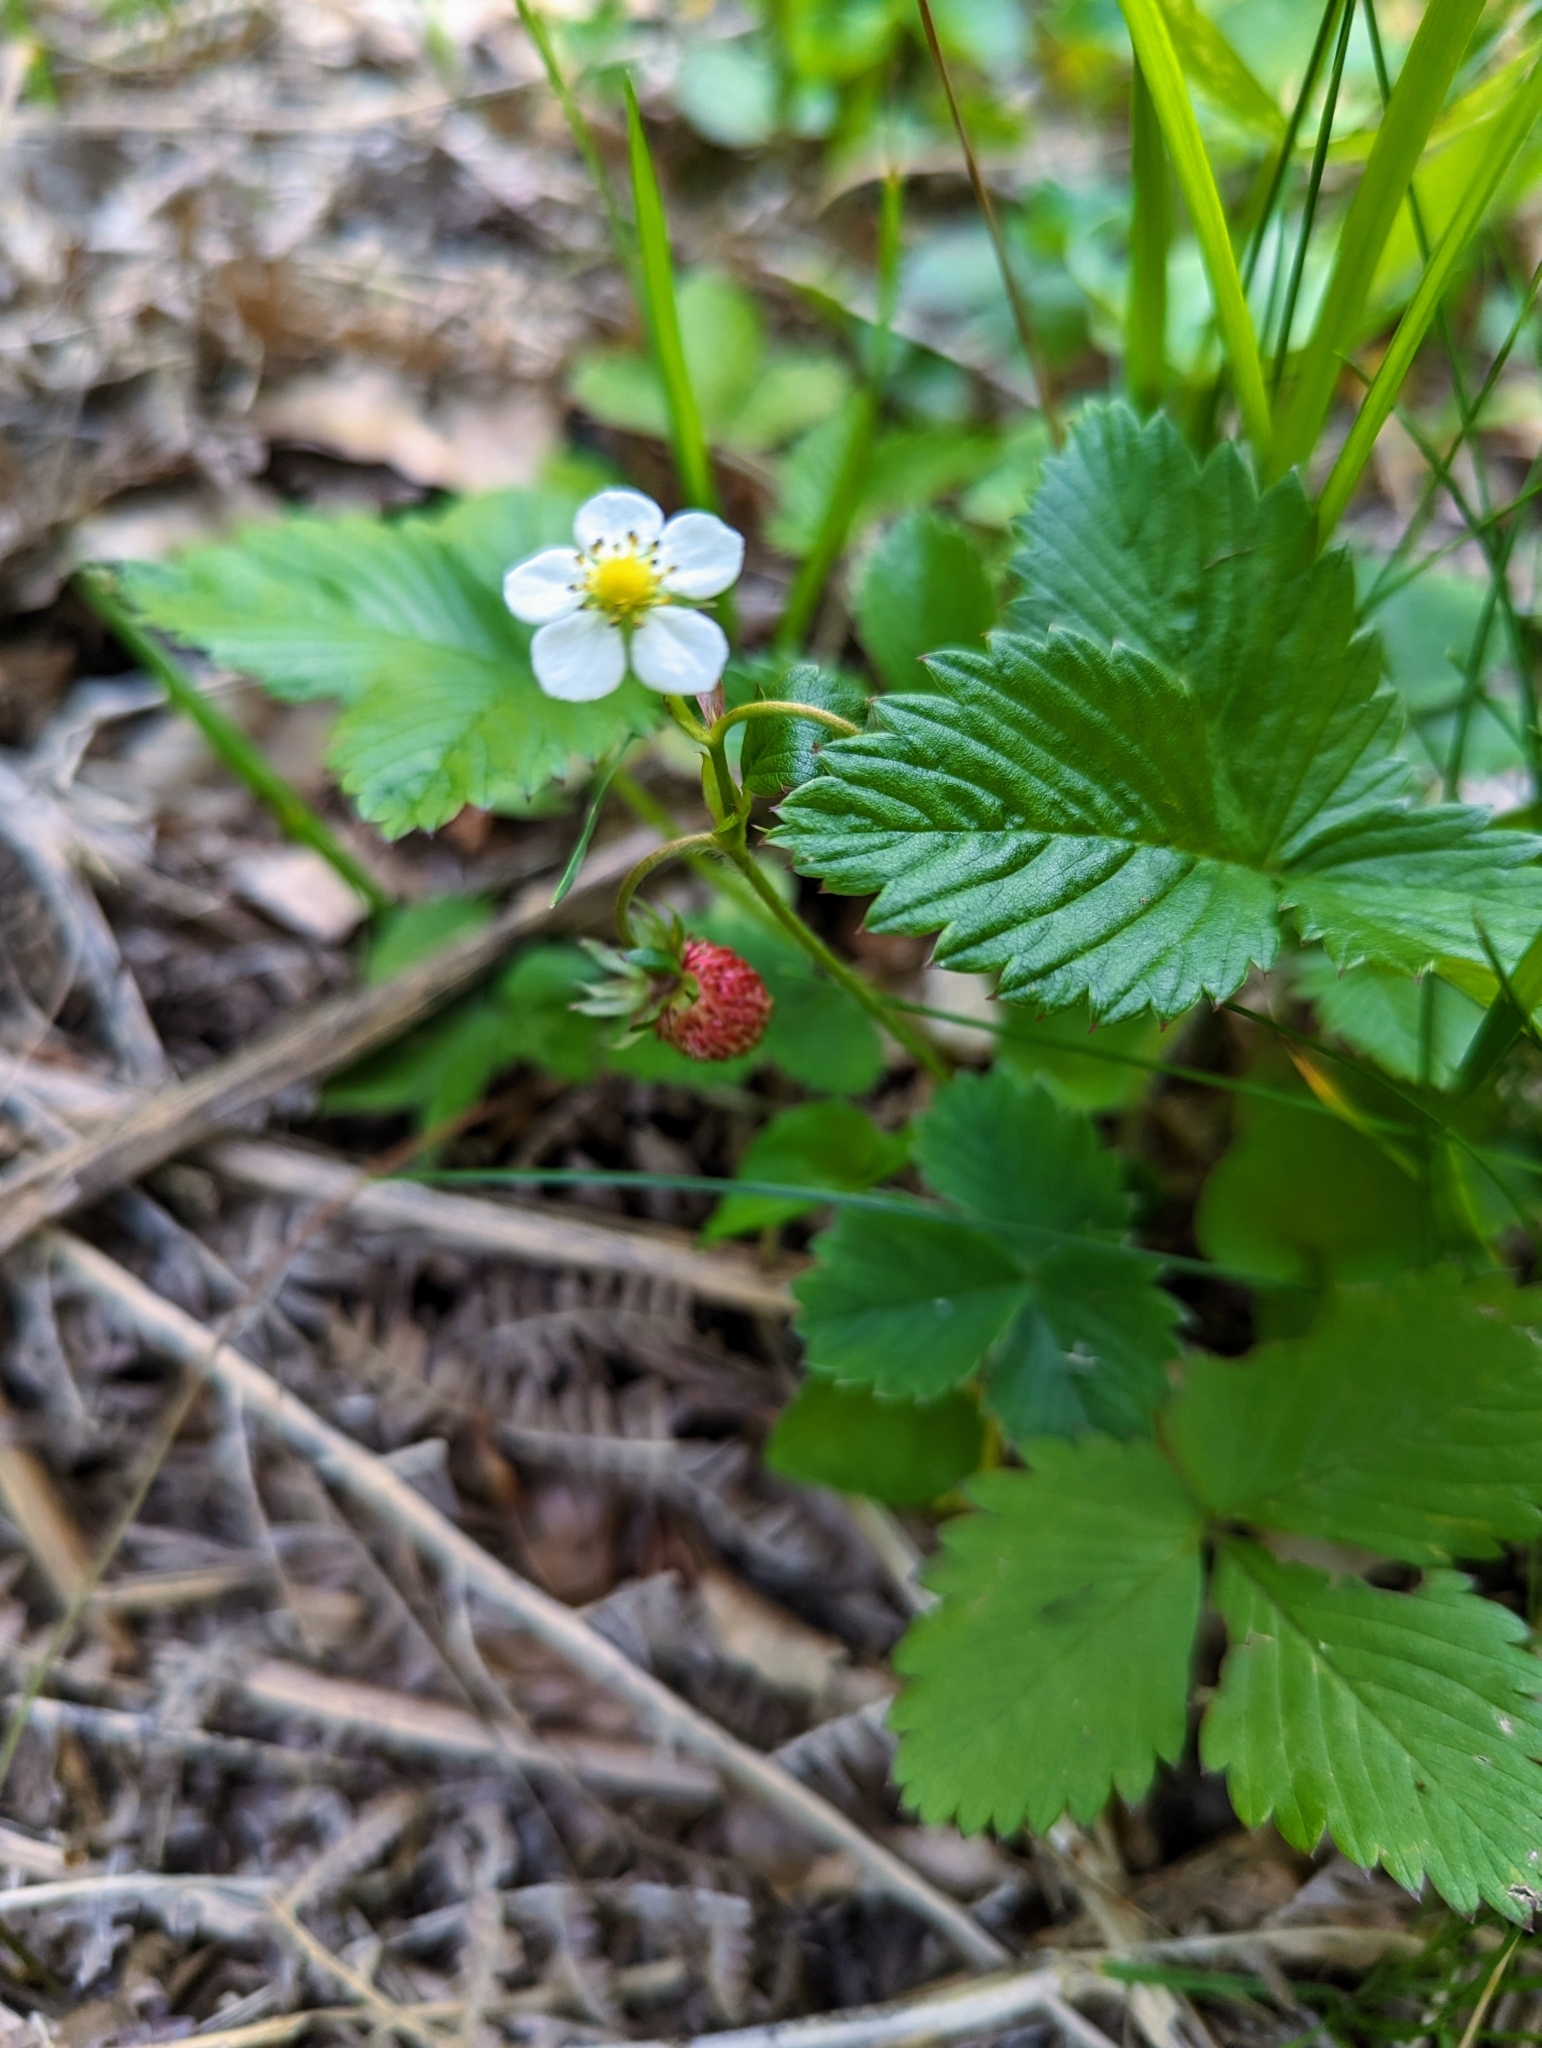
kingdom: Plantae
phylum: Tracheophyta
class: Magnoliopsida
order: Rosales
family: Rosaceae
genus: Fragaria
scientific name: Fragaria vesca
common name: Wild strawberry
